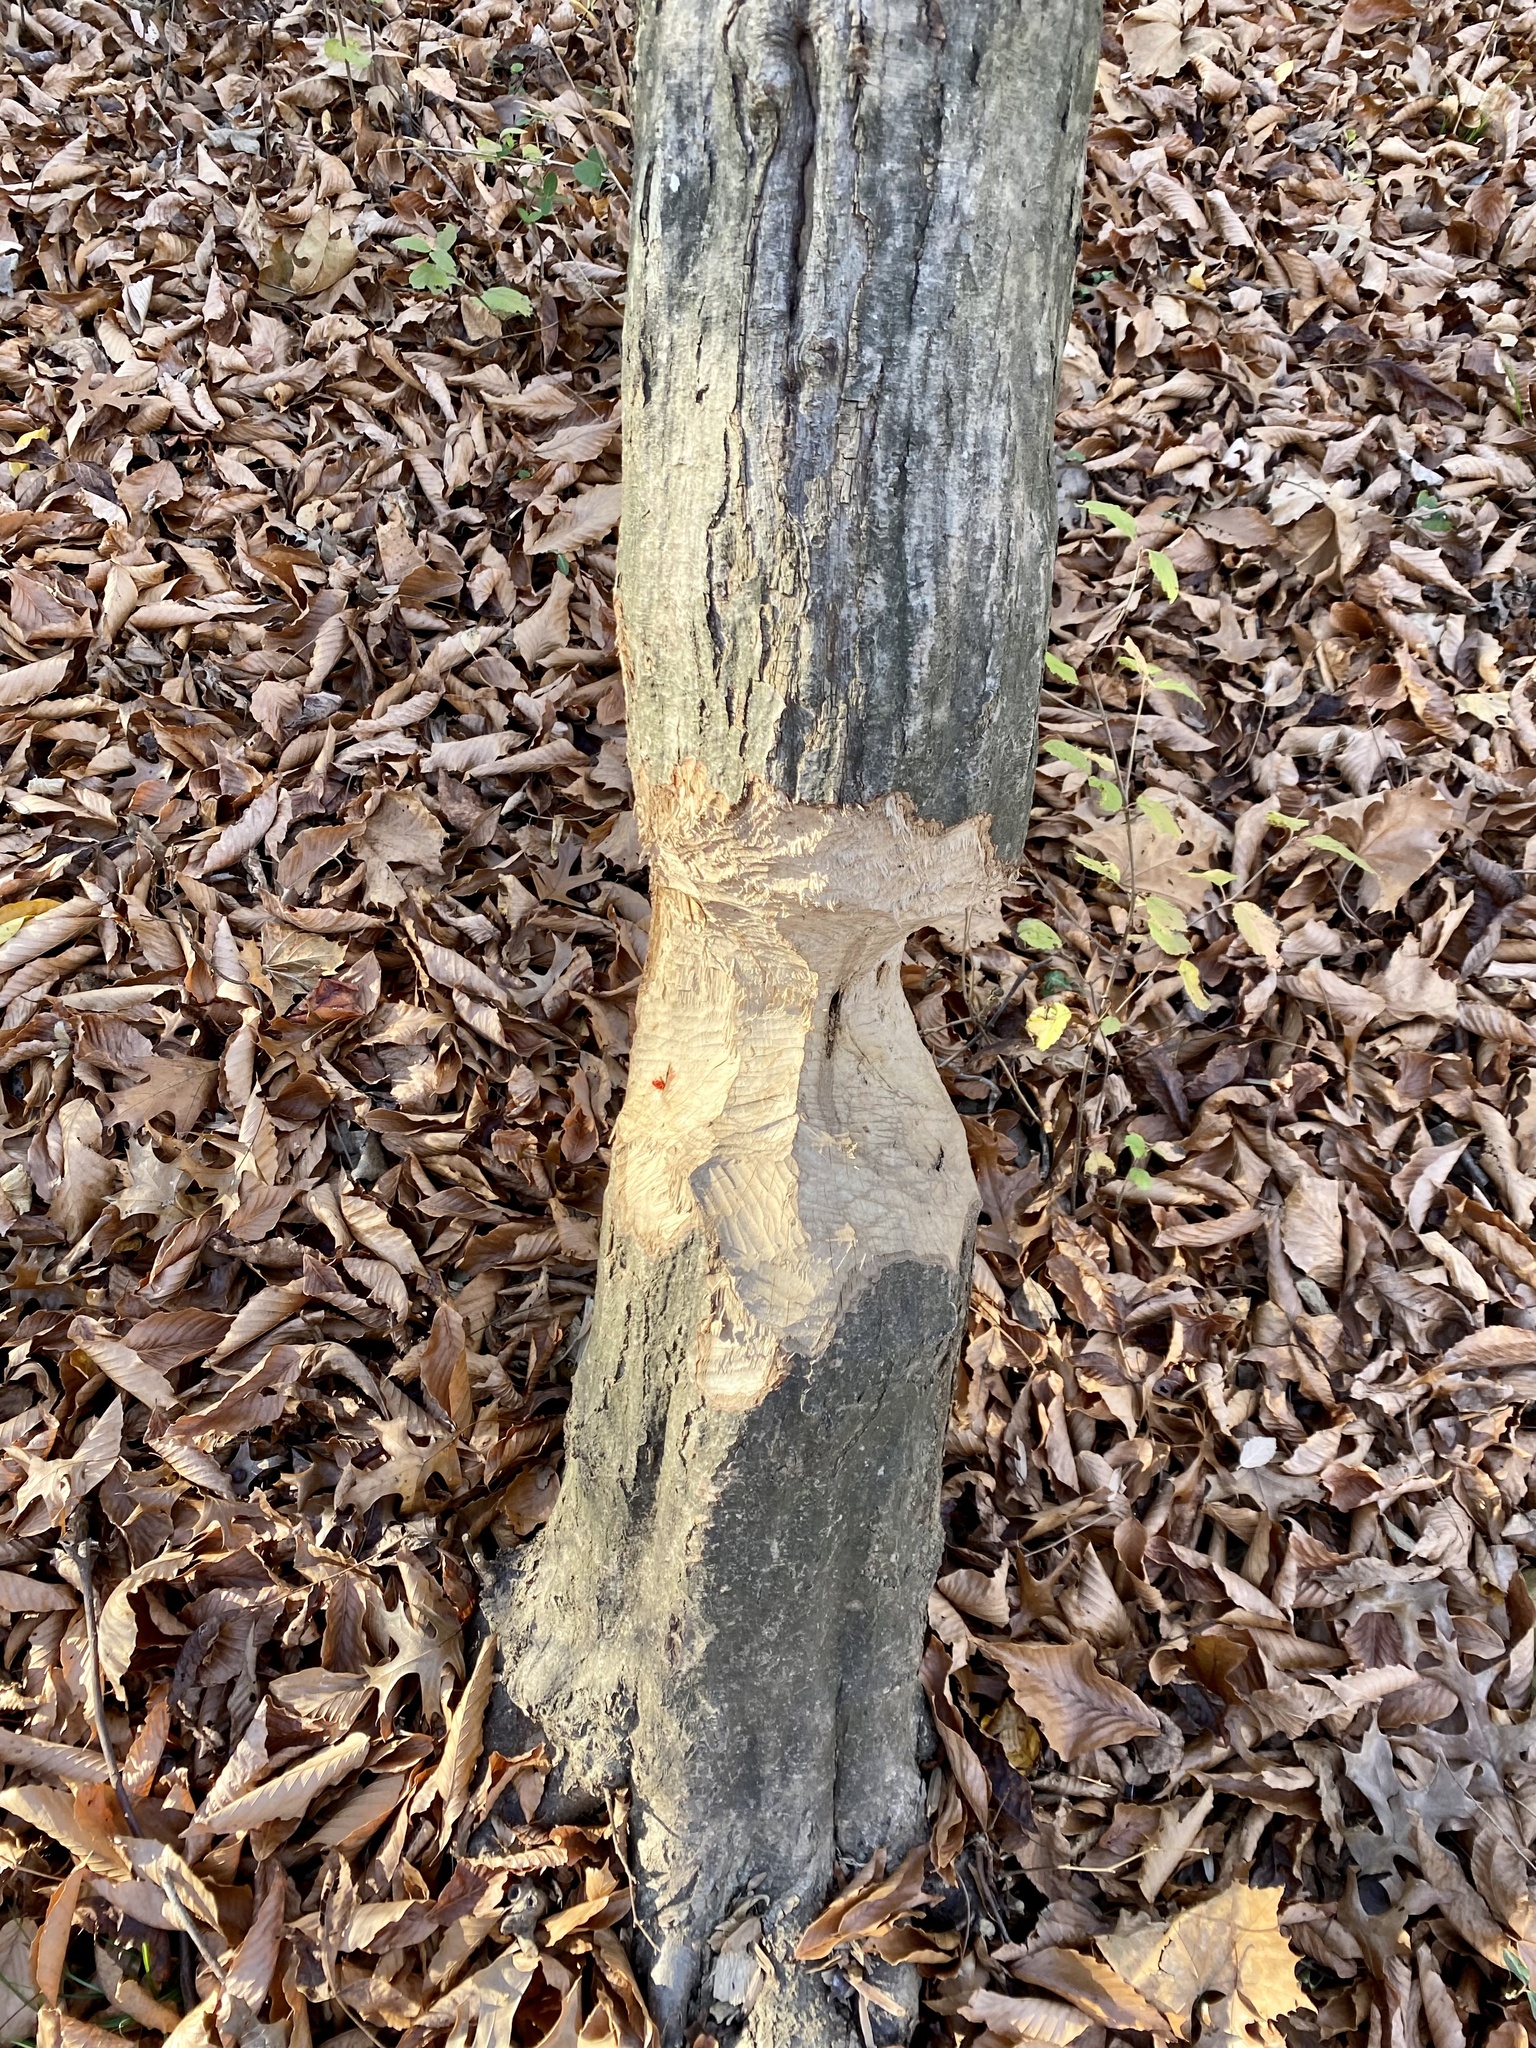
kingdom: Animalia
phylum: Chordata
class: Mammalia
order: Rodentia
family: Castoridae
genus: Castor
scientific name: Castor canadensis
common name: American beaver
